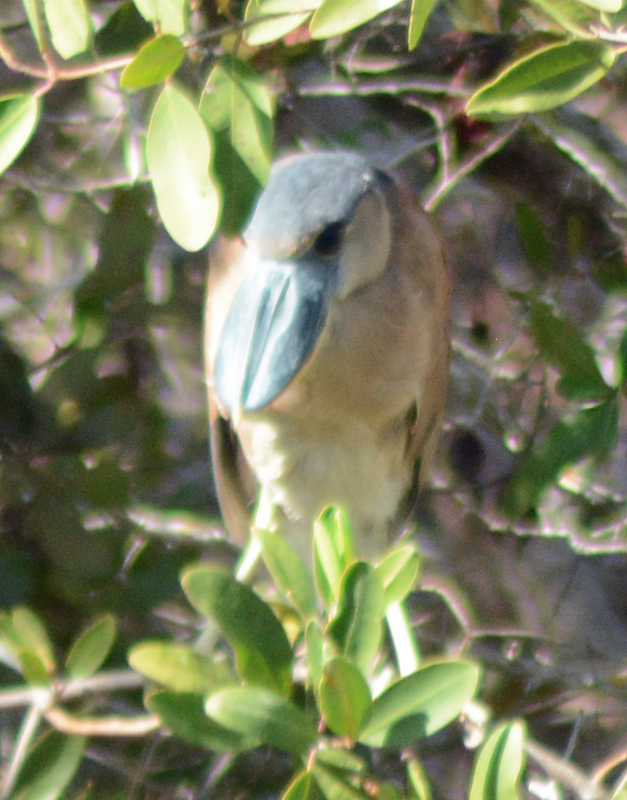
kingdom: Animalia
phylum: Chordata
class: Aves
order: Pelecaniformes
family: Ardeidae
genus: Cochlearius
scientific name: Cochlearius cochlearius
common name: Boat-billed heron
